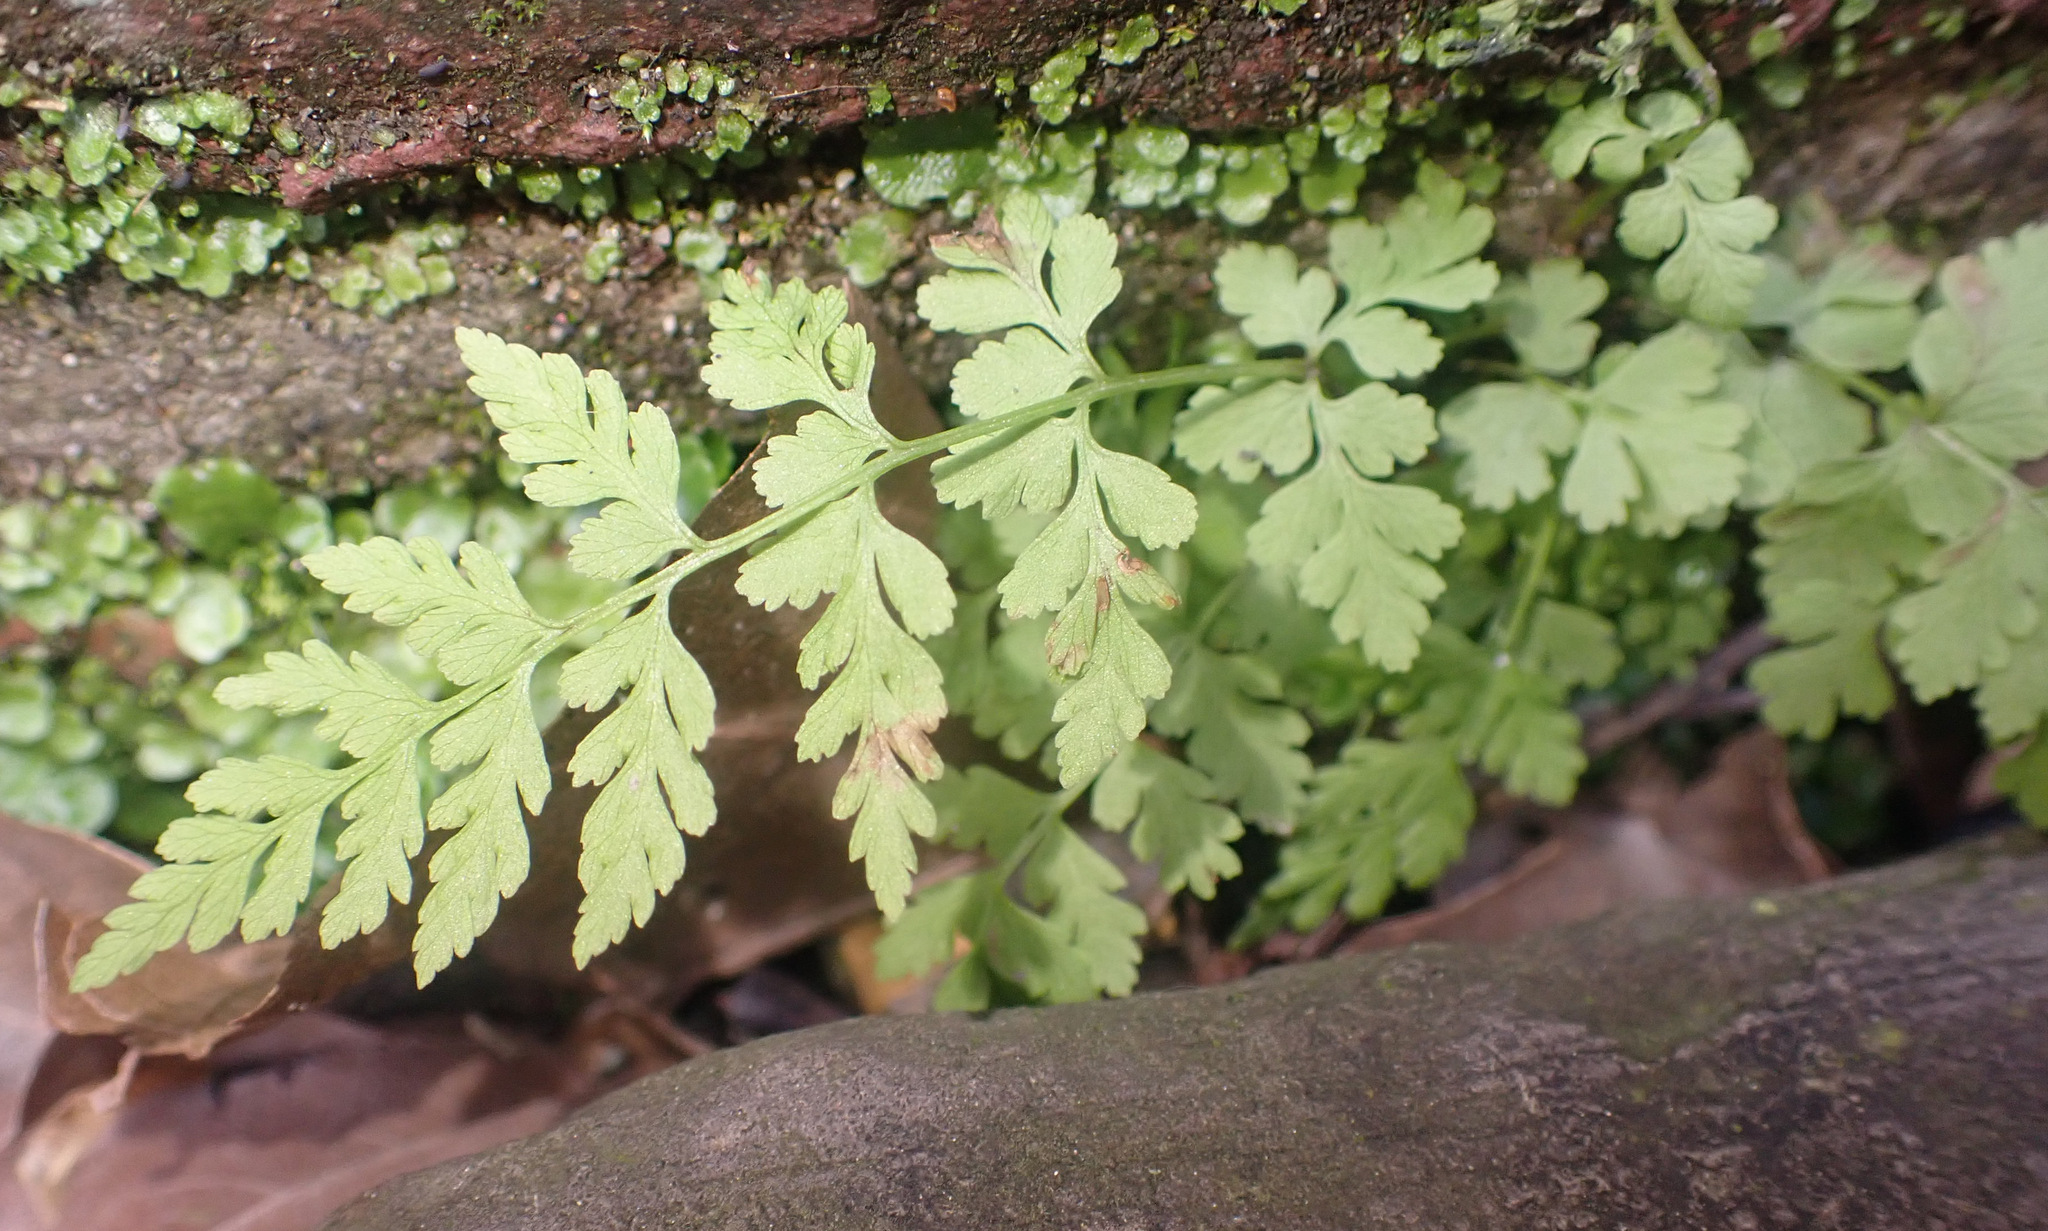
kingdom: Plantae
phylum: Tracheophyta
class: Polypodiopsida
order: Polypodiales
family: Cystopteridaceae
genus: Cystopteris
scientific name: Cystopteris fragilis
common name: Brittle bladder fern
